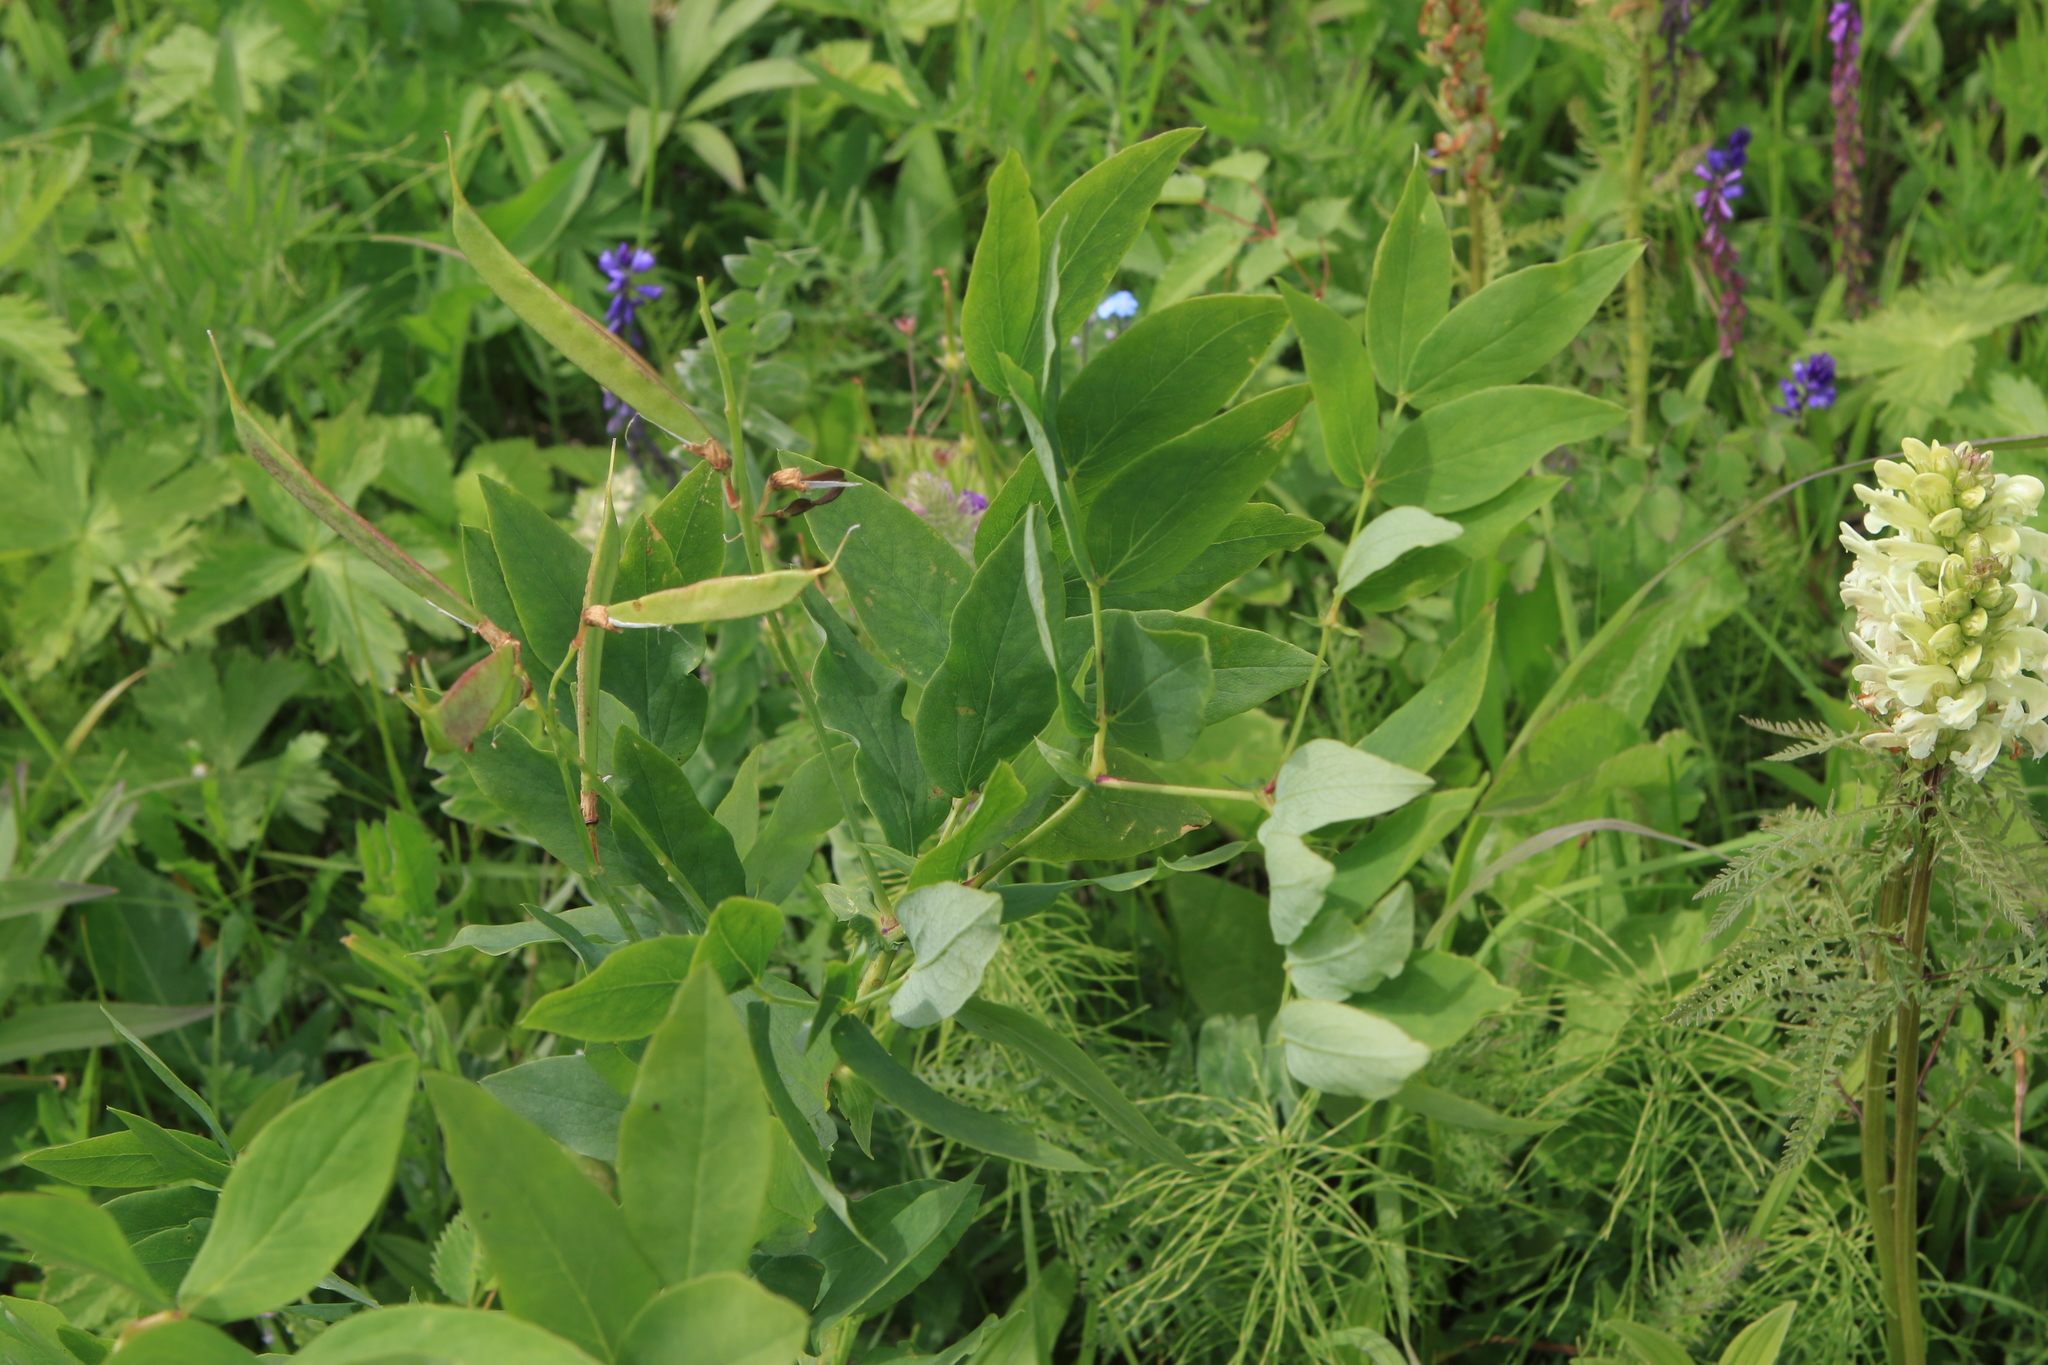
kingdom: Plantae
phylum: Tracheophyta
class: Magnoliopsida
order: Fabales
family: Fabaceae
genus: Lathyrus
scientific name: Lathyrus gmelinii
